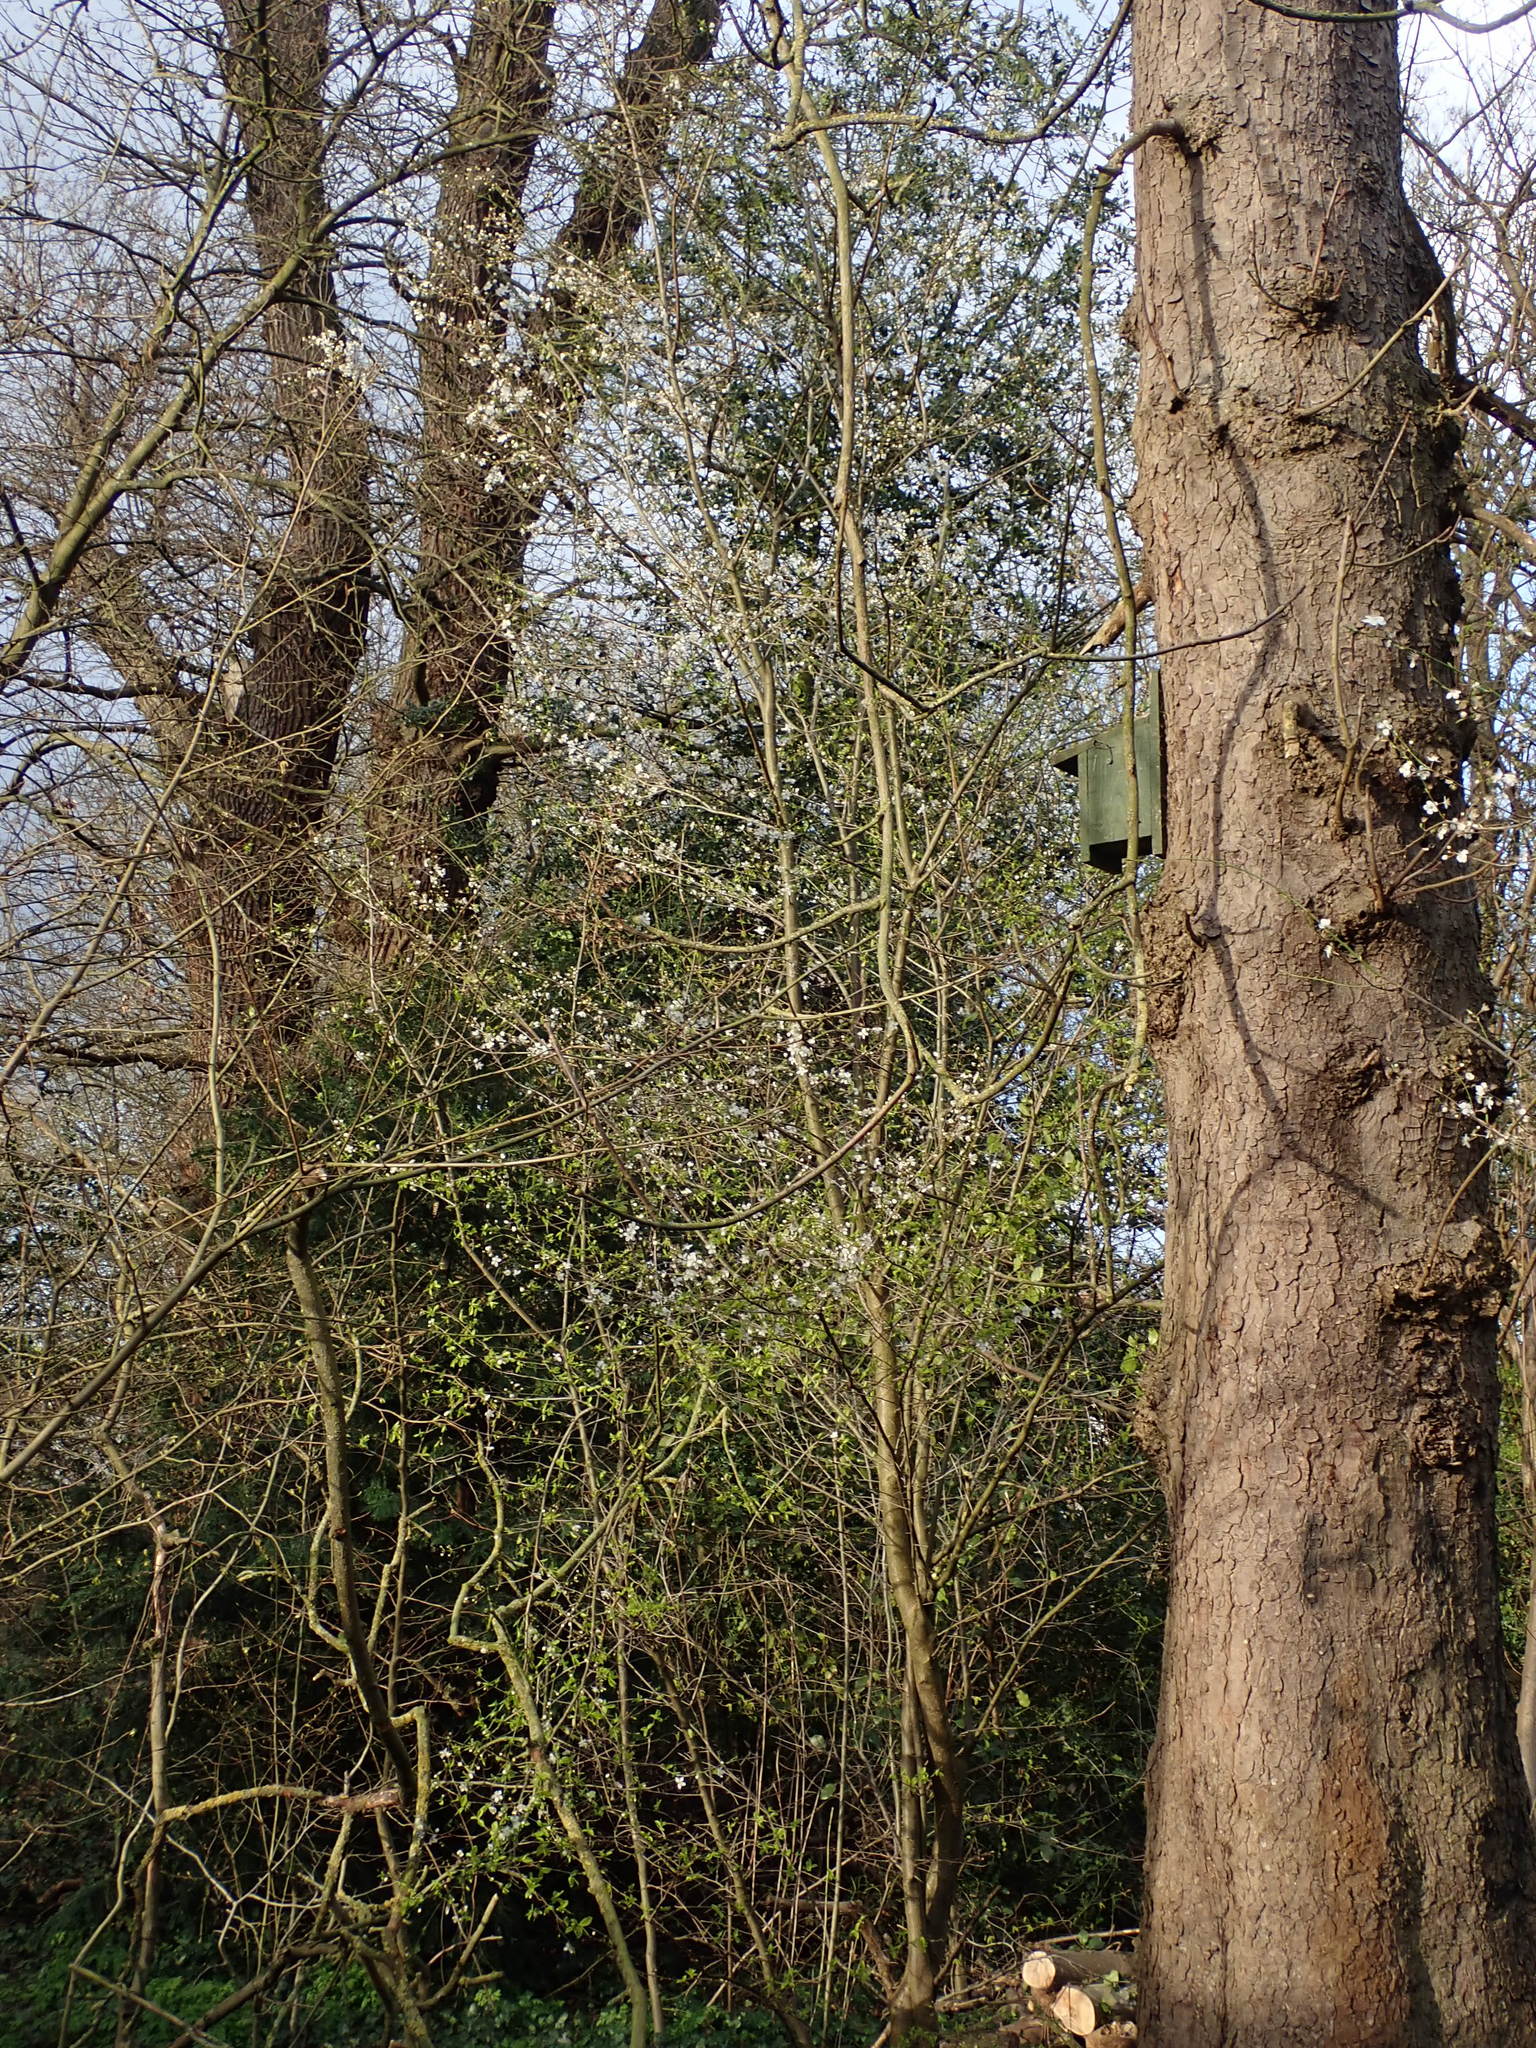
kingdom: Plantae
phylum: Tracheophyta
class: Magnoliopsida
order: Rosales
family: Rosaceae
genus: Prunus
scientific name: Prunus cerasifera
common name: Cherry plum
